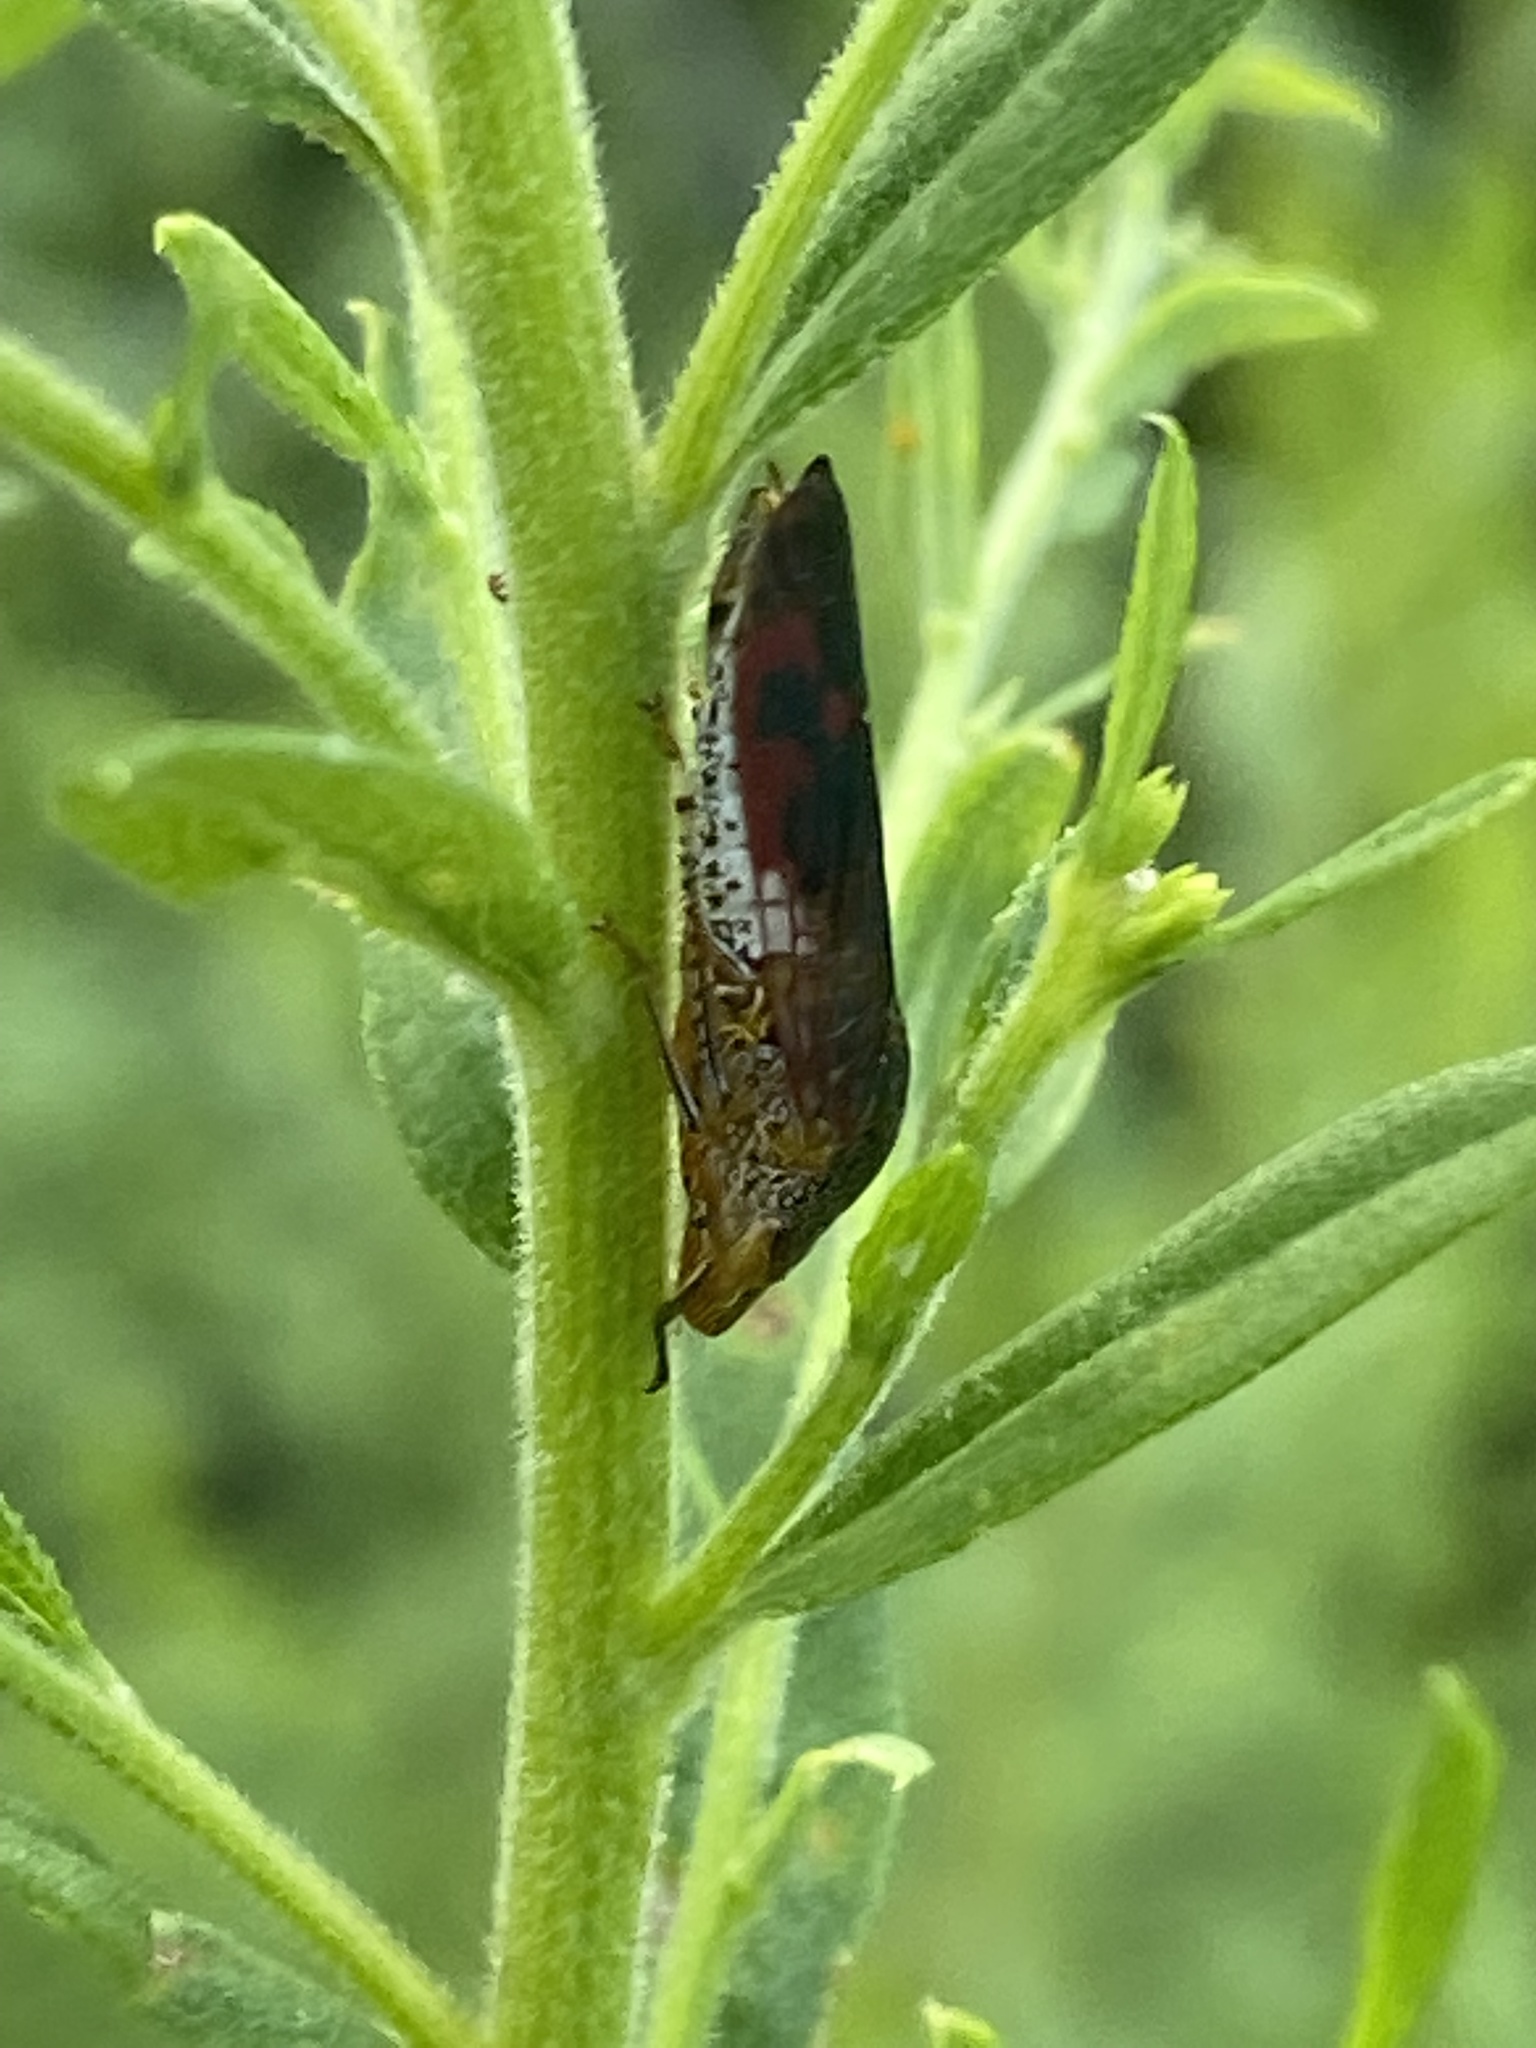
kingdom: Animalia
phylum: Arthropoda
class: Insecta
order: Hemiptera
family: Cicadellidae
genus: Homalodisca
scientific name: Homalodisca vitripennis
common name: Glassy-winged sharpshooter
